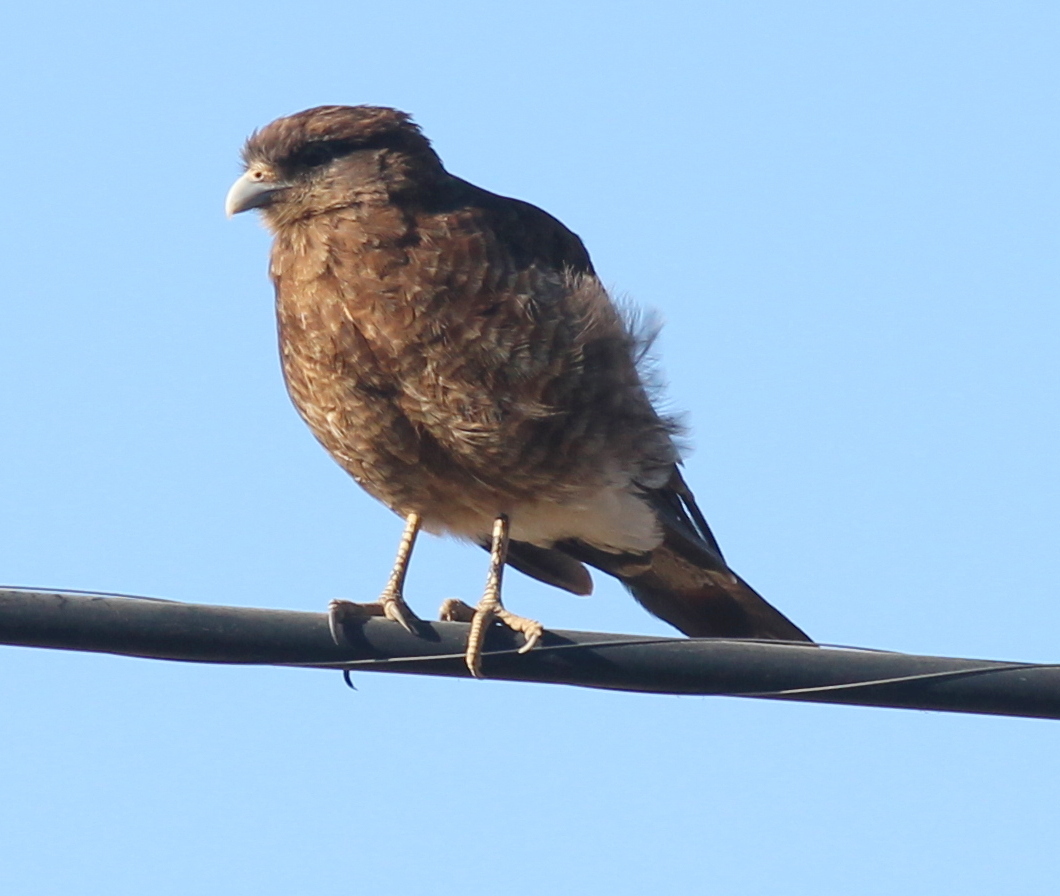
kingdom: Animalia
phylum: Chordata
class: Aves
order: Falconiformes
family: Falconidae
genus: Daptrius
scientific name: Daptrius
